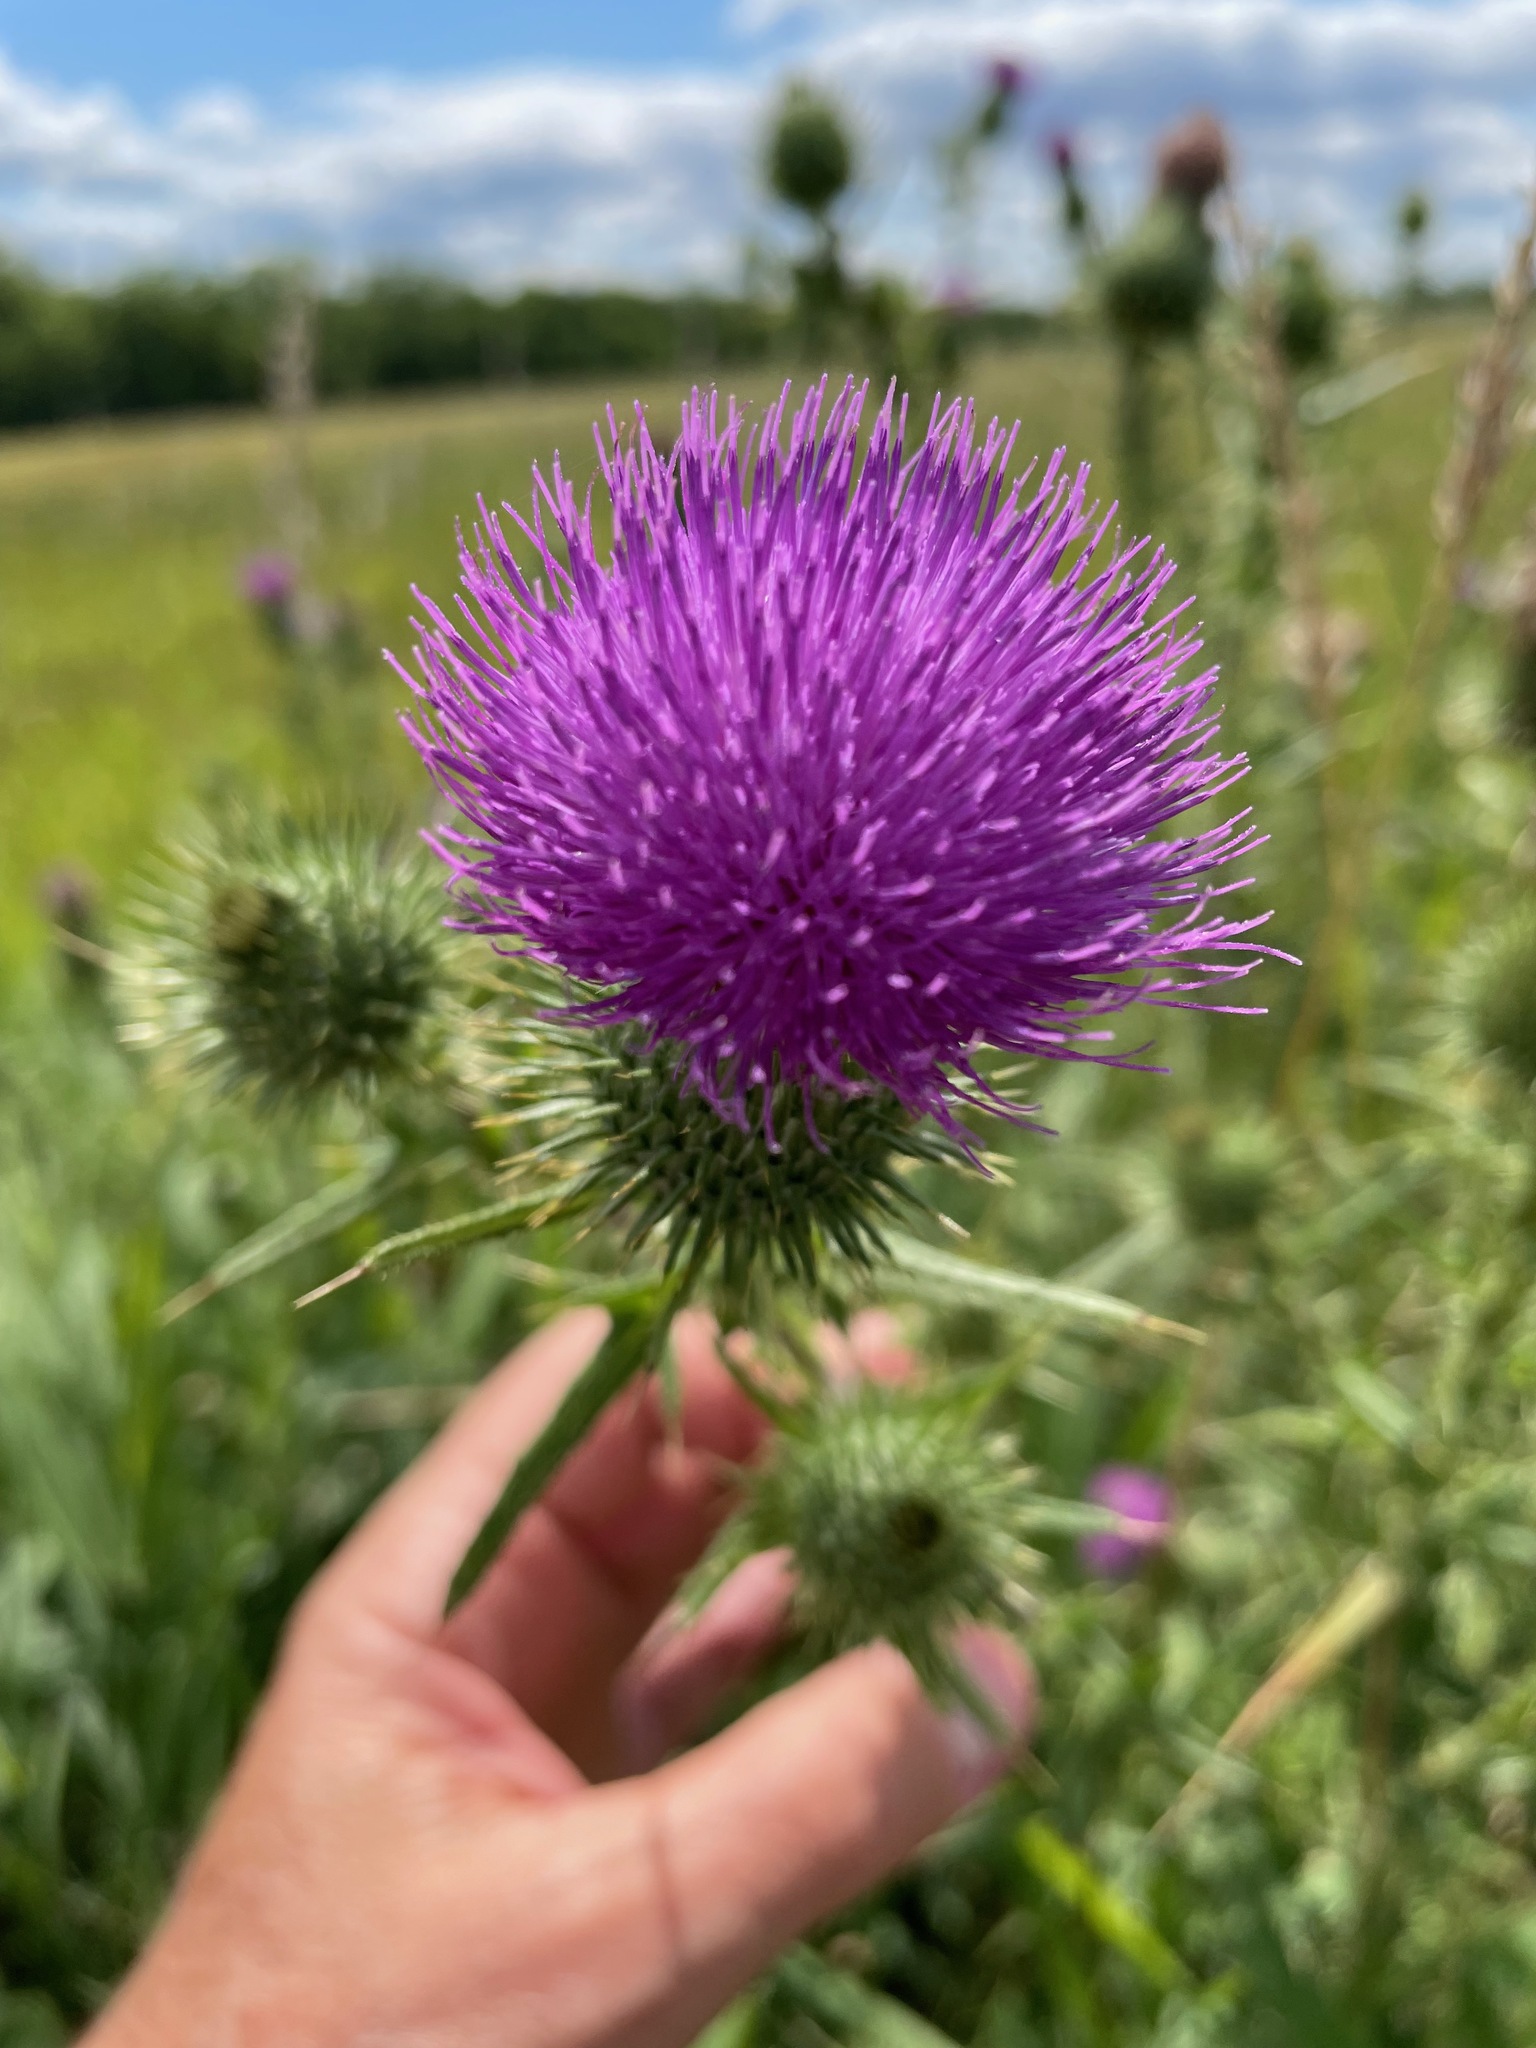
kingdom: Plantae
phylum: Tracheophyta
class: Magnoliopsida
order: Asterales
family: Asteraceae
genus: Cirsium
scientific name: Cirsium vulgare
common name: Bull thistle
